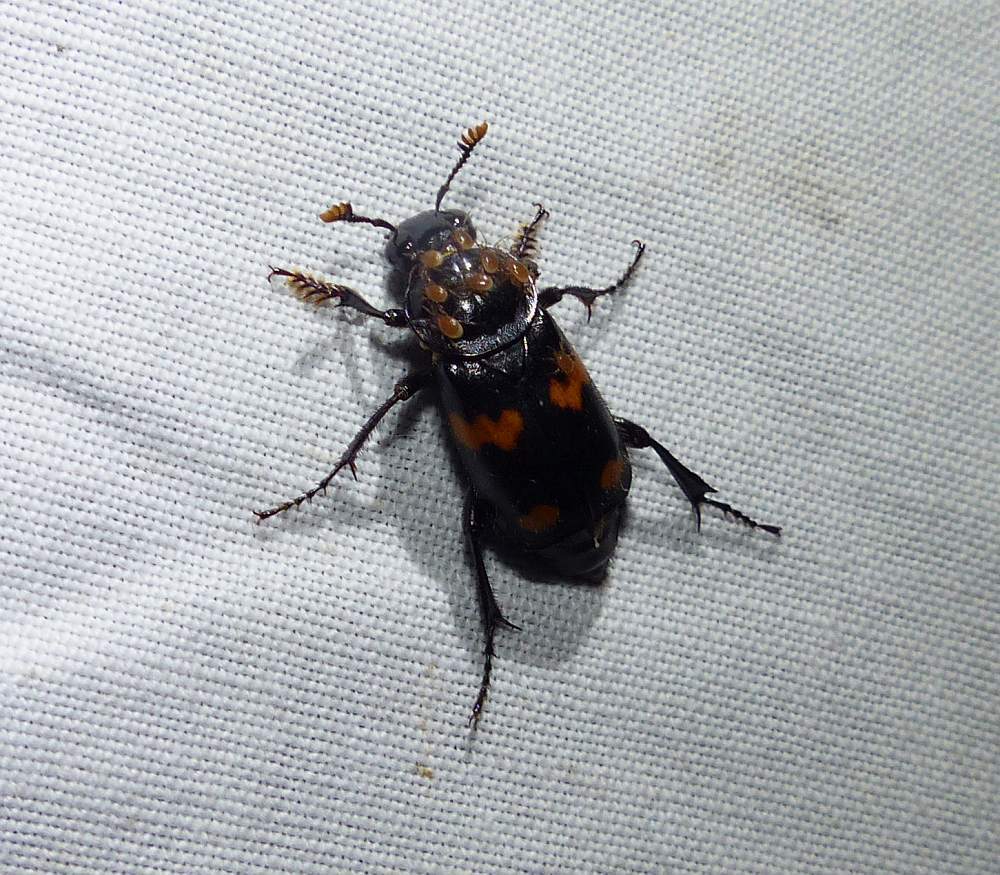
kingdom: Animalia
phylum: Arthropoda
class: Insecta
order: Coleoptera
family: Staphylinidae
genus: Nicrophorus
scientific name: Nicrophorus orbicollis
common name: Roundneck sexton beetle
